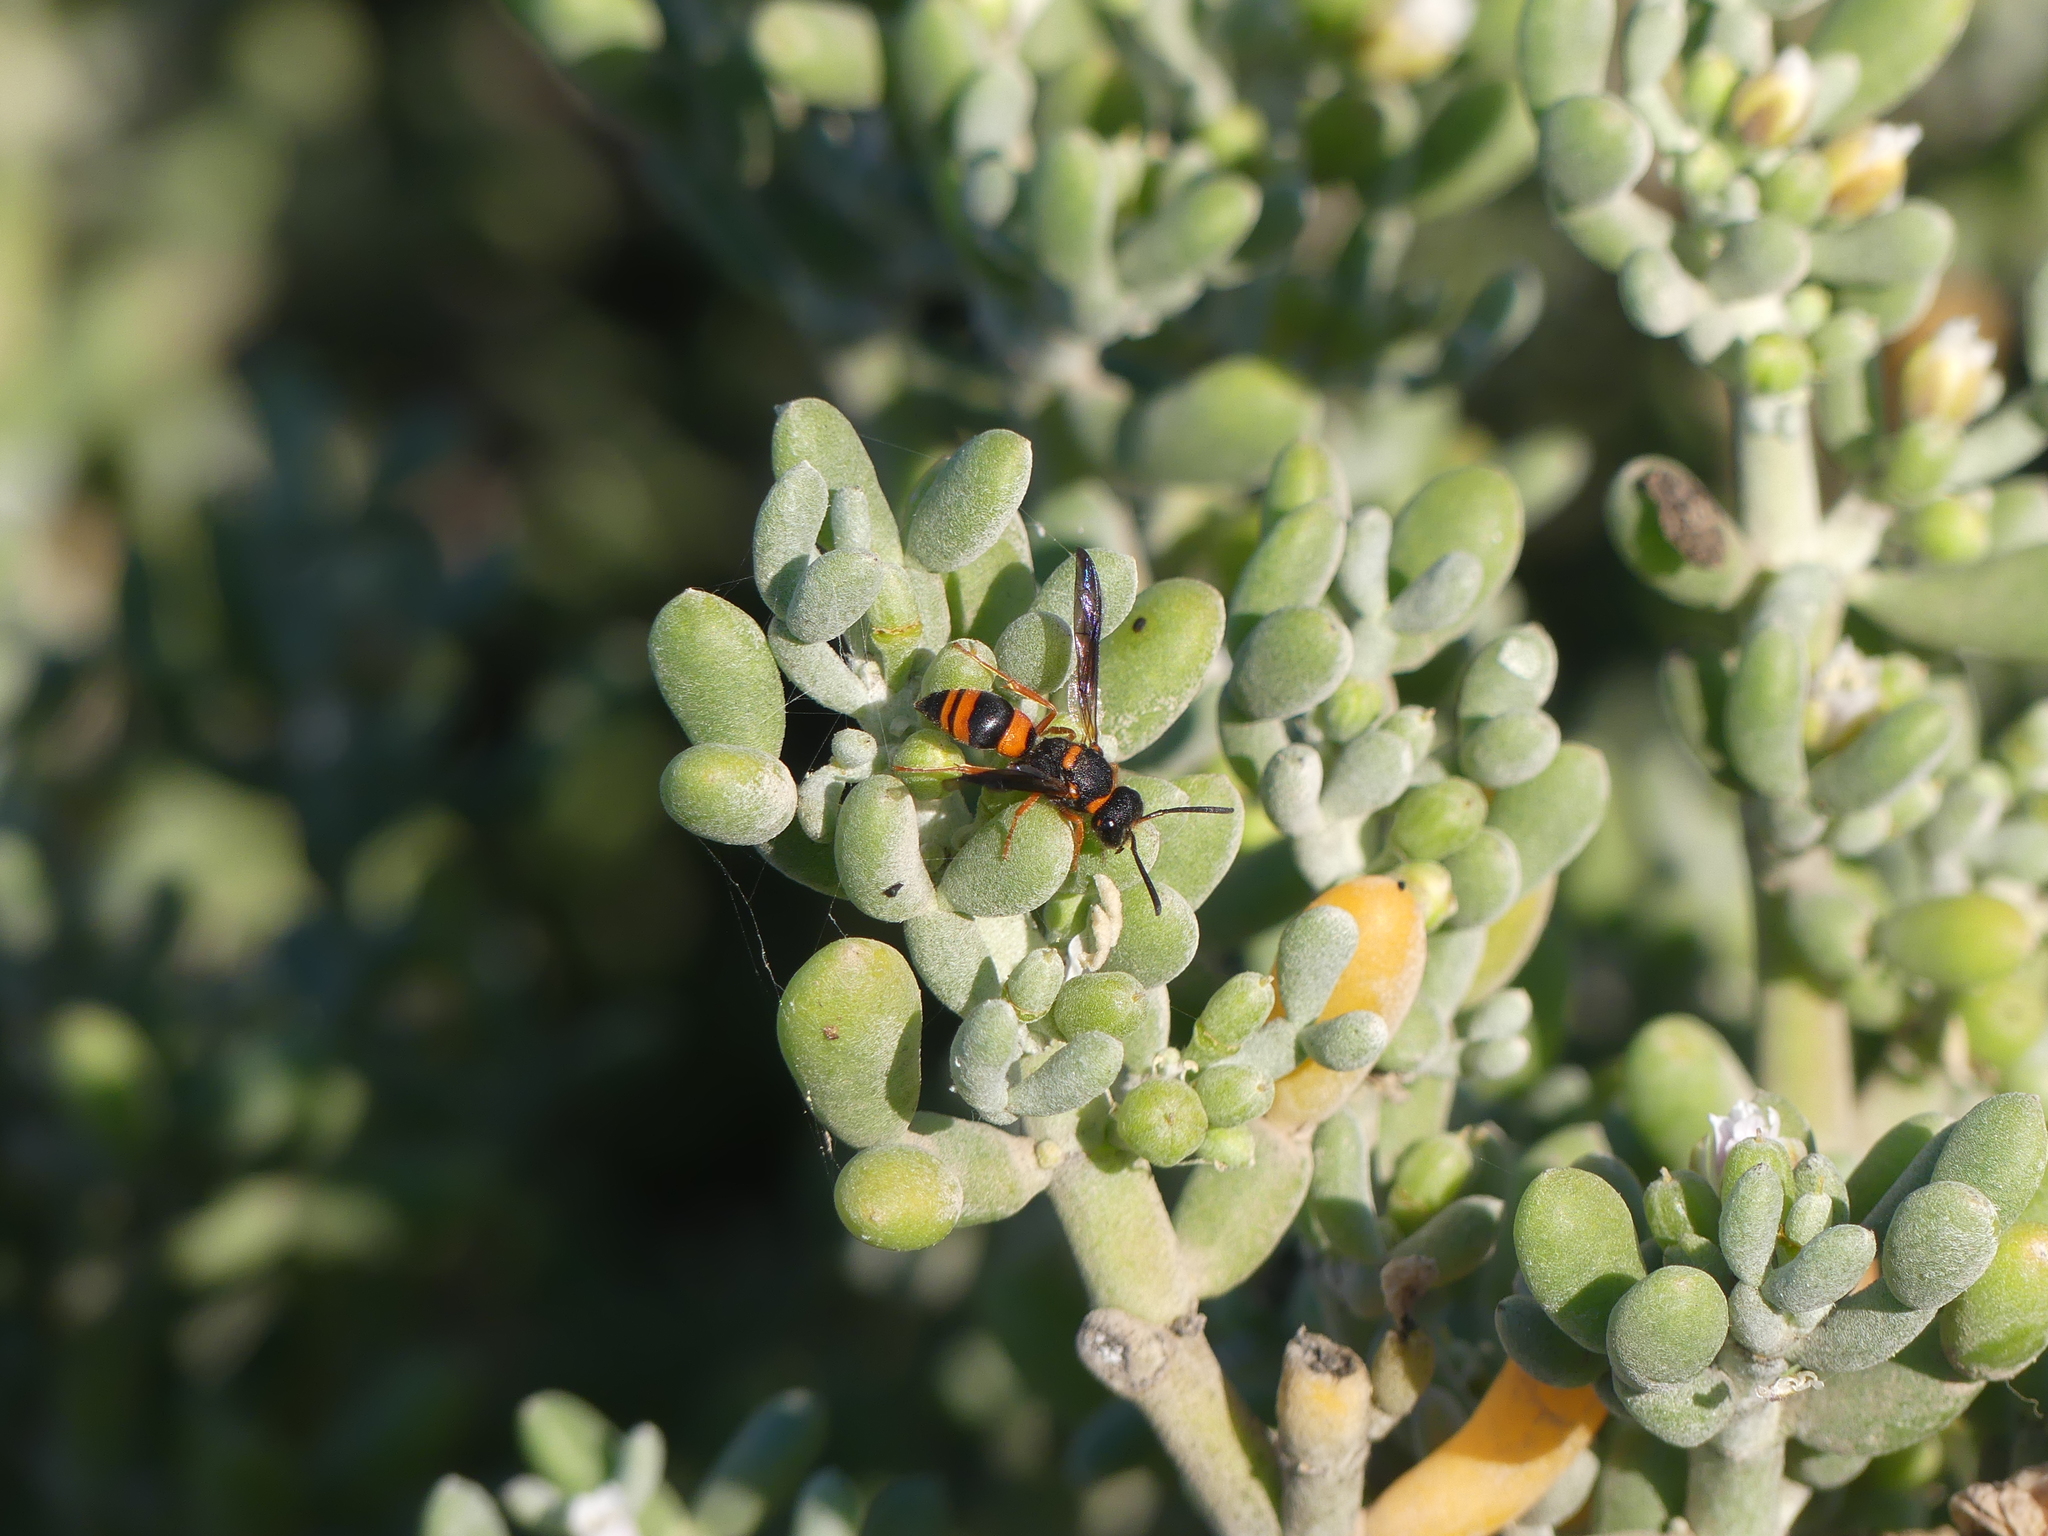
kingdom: Animalia
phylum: Arthropoda
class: Insecta
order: Hymenoptera
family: Vespidae
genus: Ancistrocerus
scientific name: Ancistrocerus kerneri
